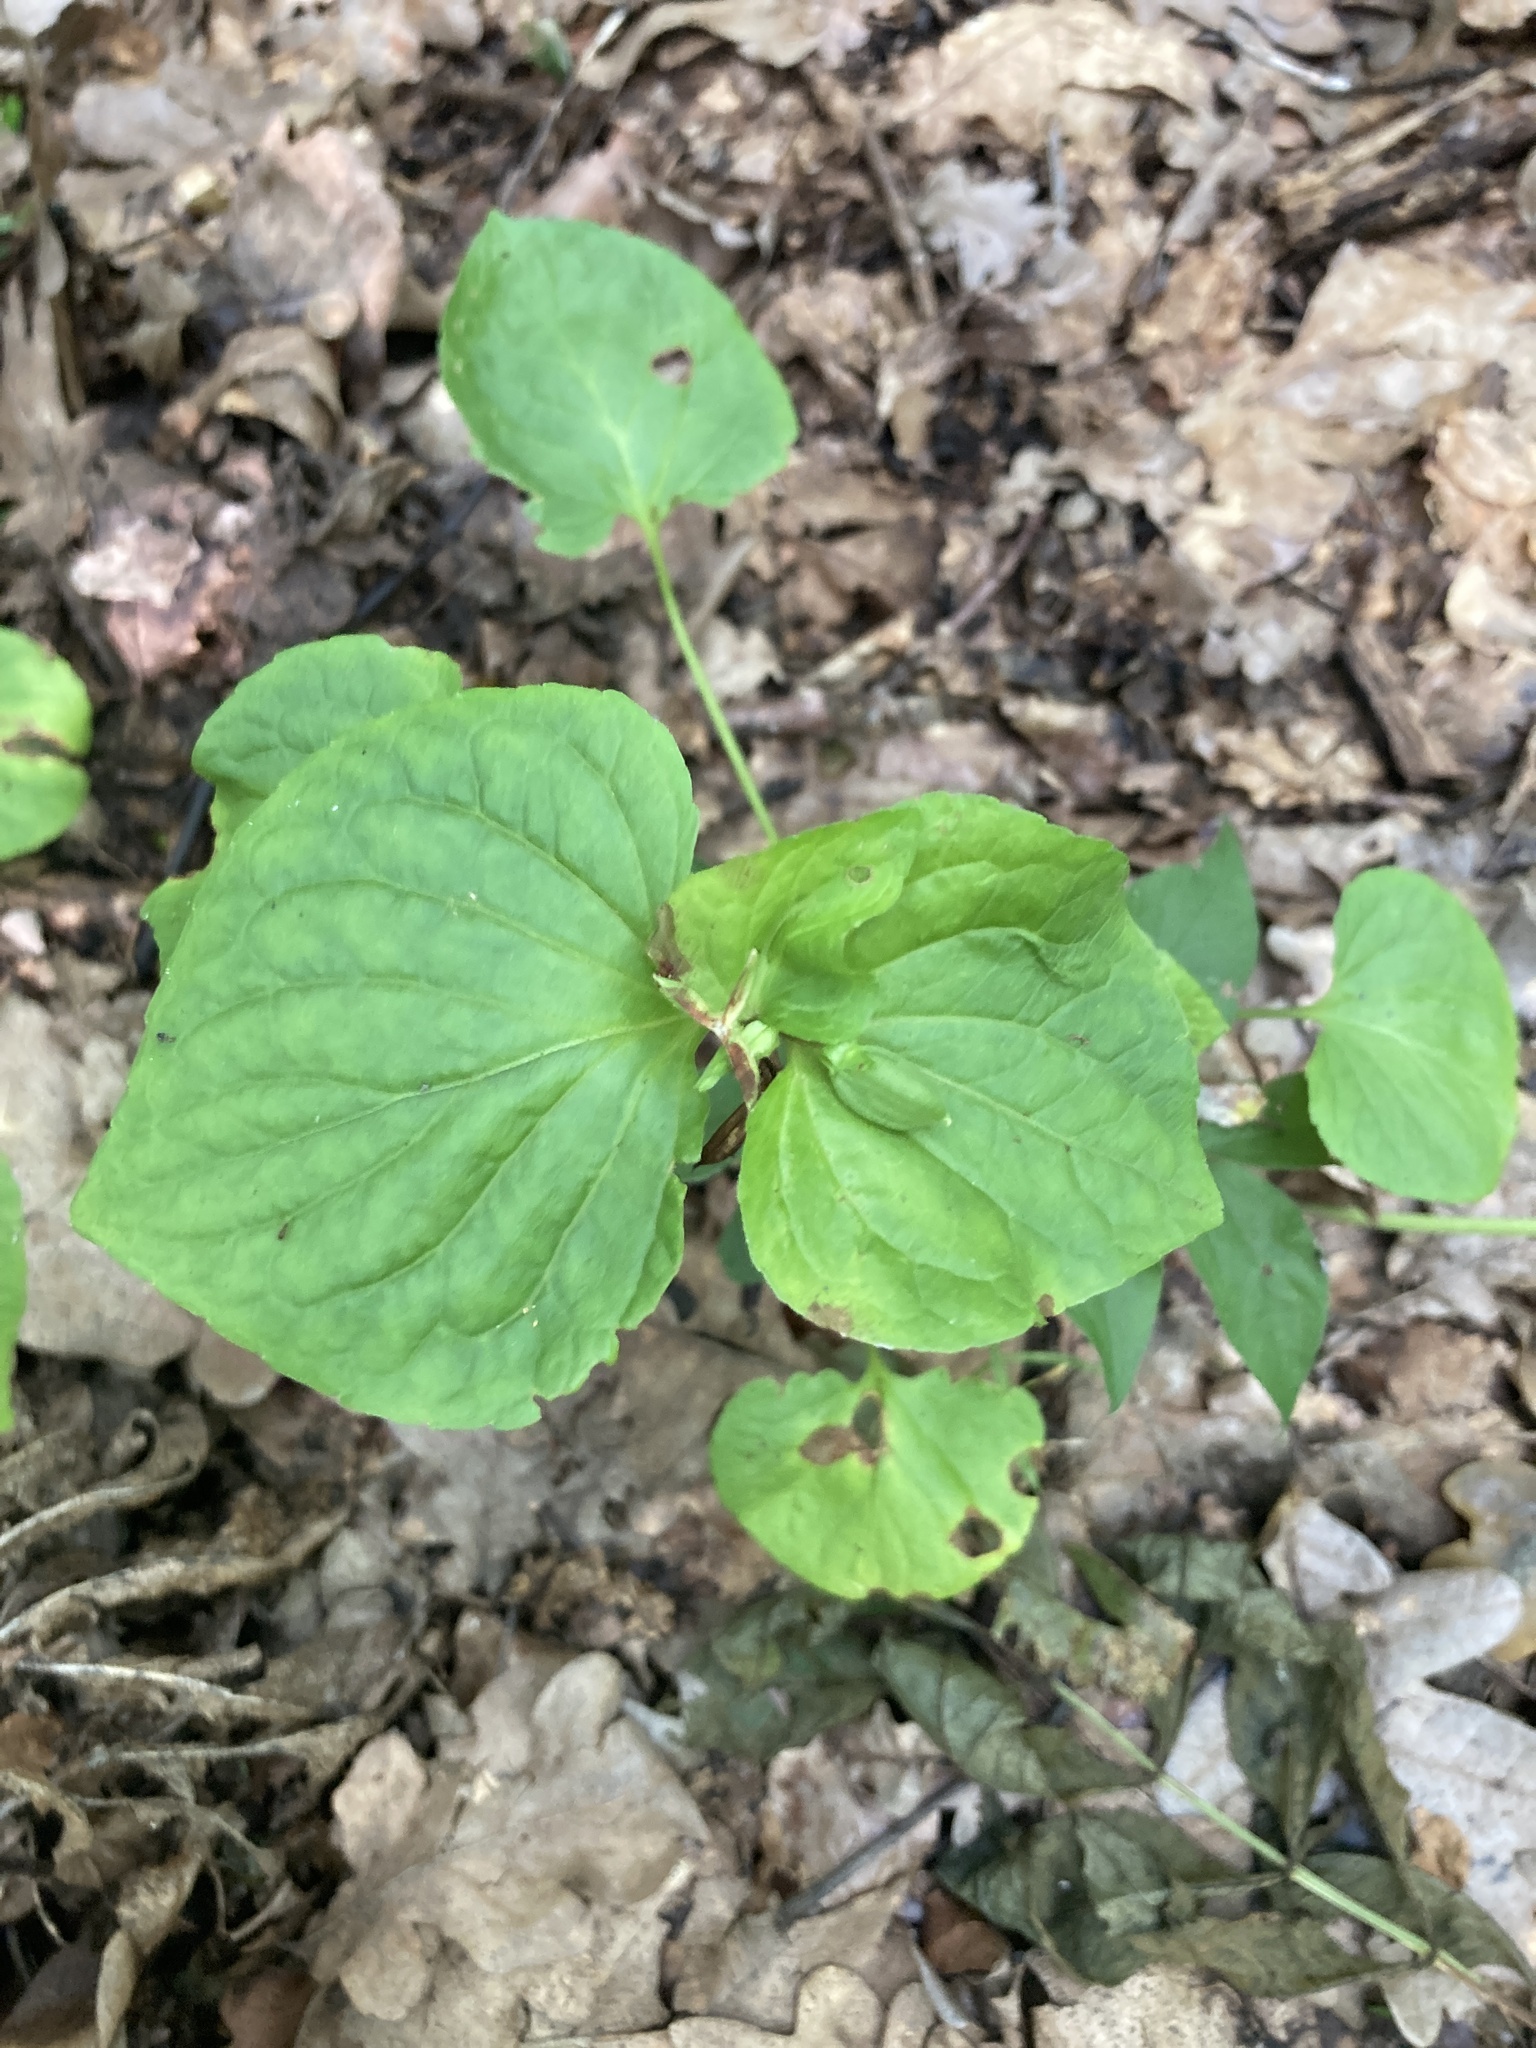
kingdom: Plantae
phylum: Tracheophyta
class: Magnoliopsida
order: Malpighiales
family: Violaceae
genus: Viola
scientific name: Viola mirabilis
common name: Wonder violet
